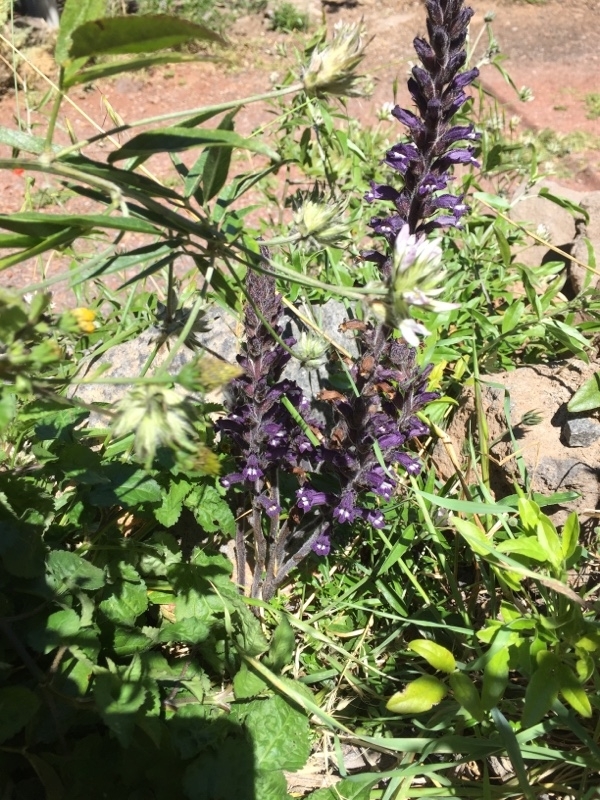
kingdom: Plantae
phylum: Tracheophyta
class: Magnoliopsida
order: Lamiales
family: Orobanchaceae
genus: Phelipanche
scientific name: Phelipanche lavandulacea
